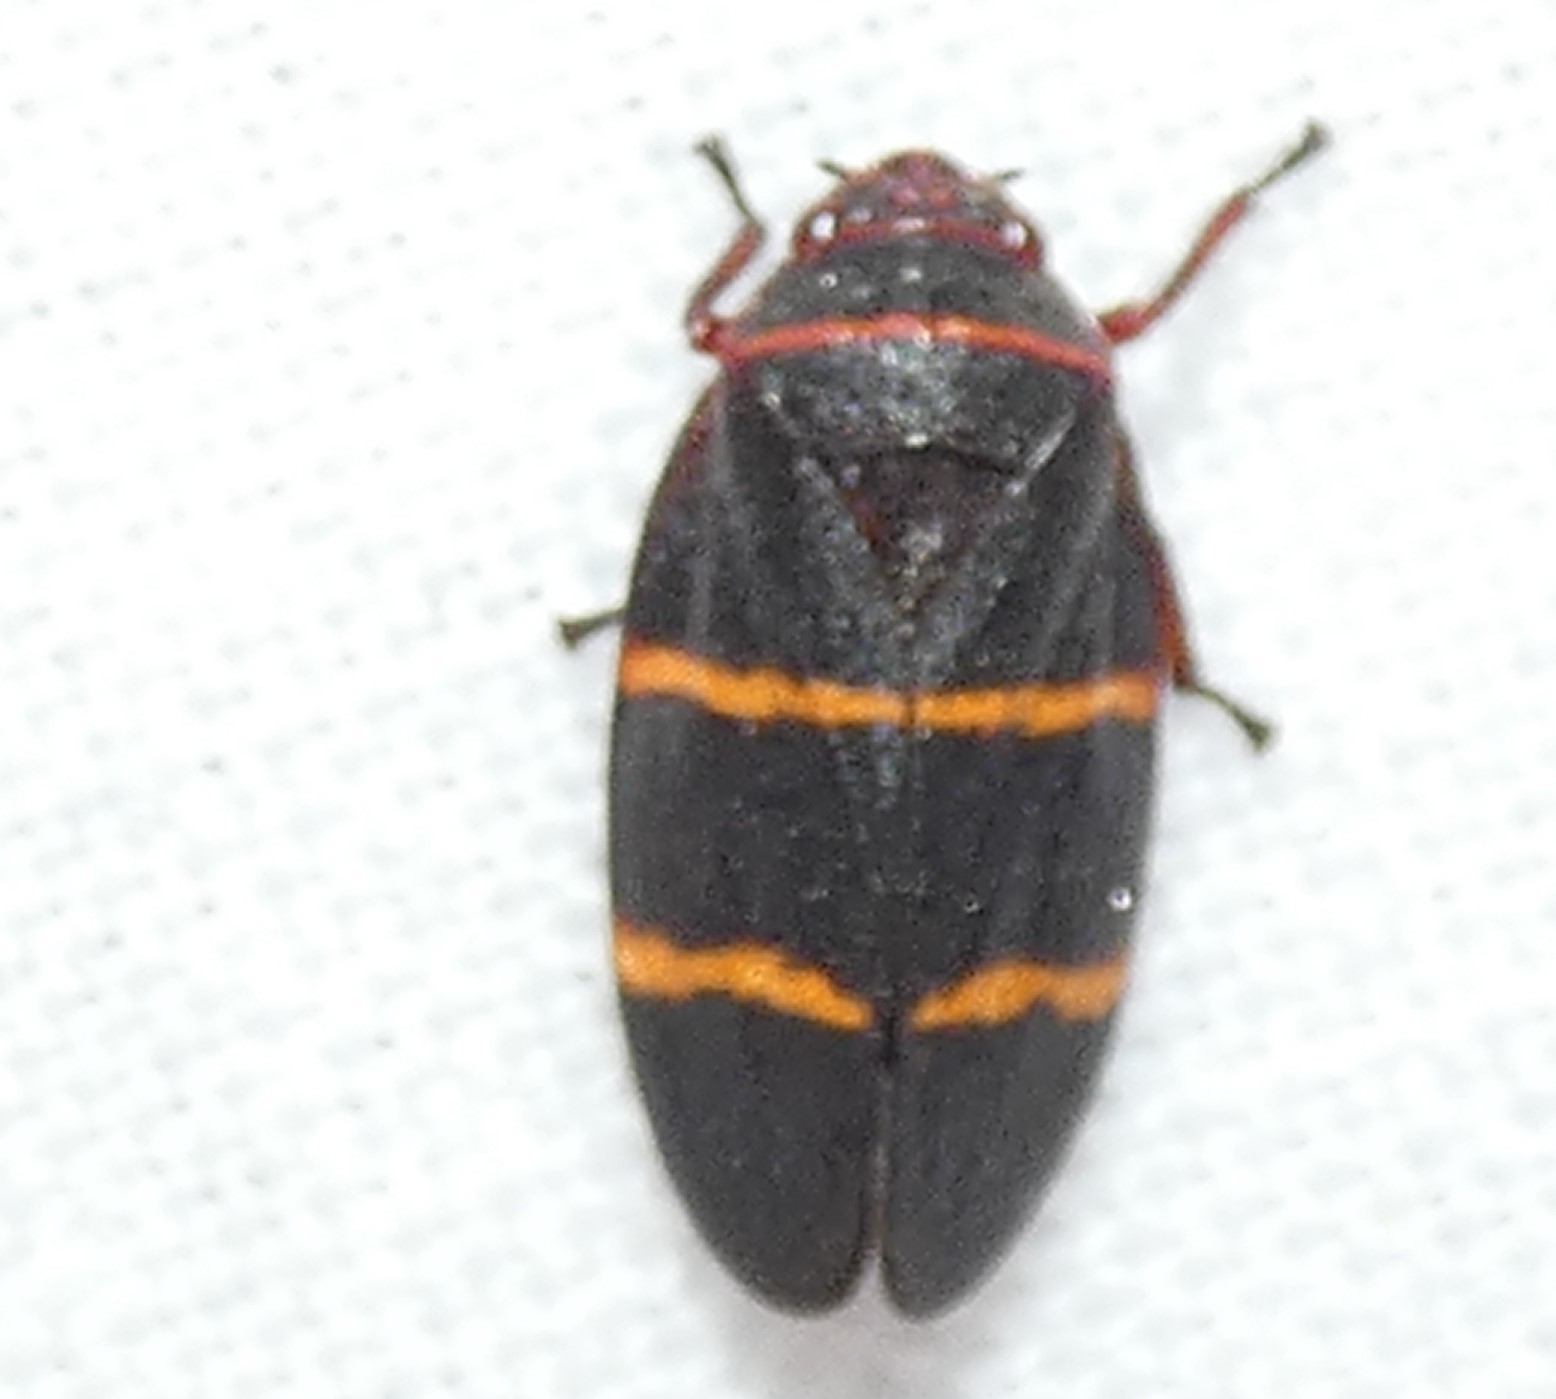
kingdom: Animalia
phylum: Arthropoda
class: Insecta
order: Hemiptera
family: Cercopidae
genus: Prosapia
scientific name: Prosapia bicincta
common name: Twolined spittlebug
